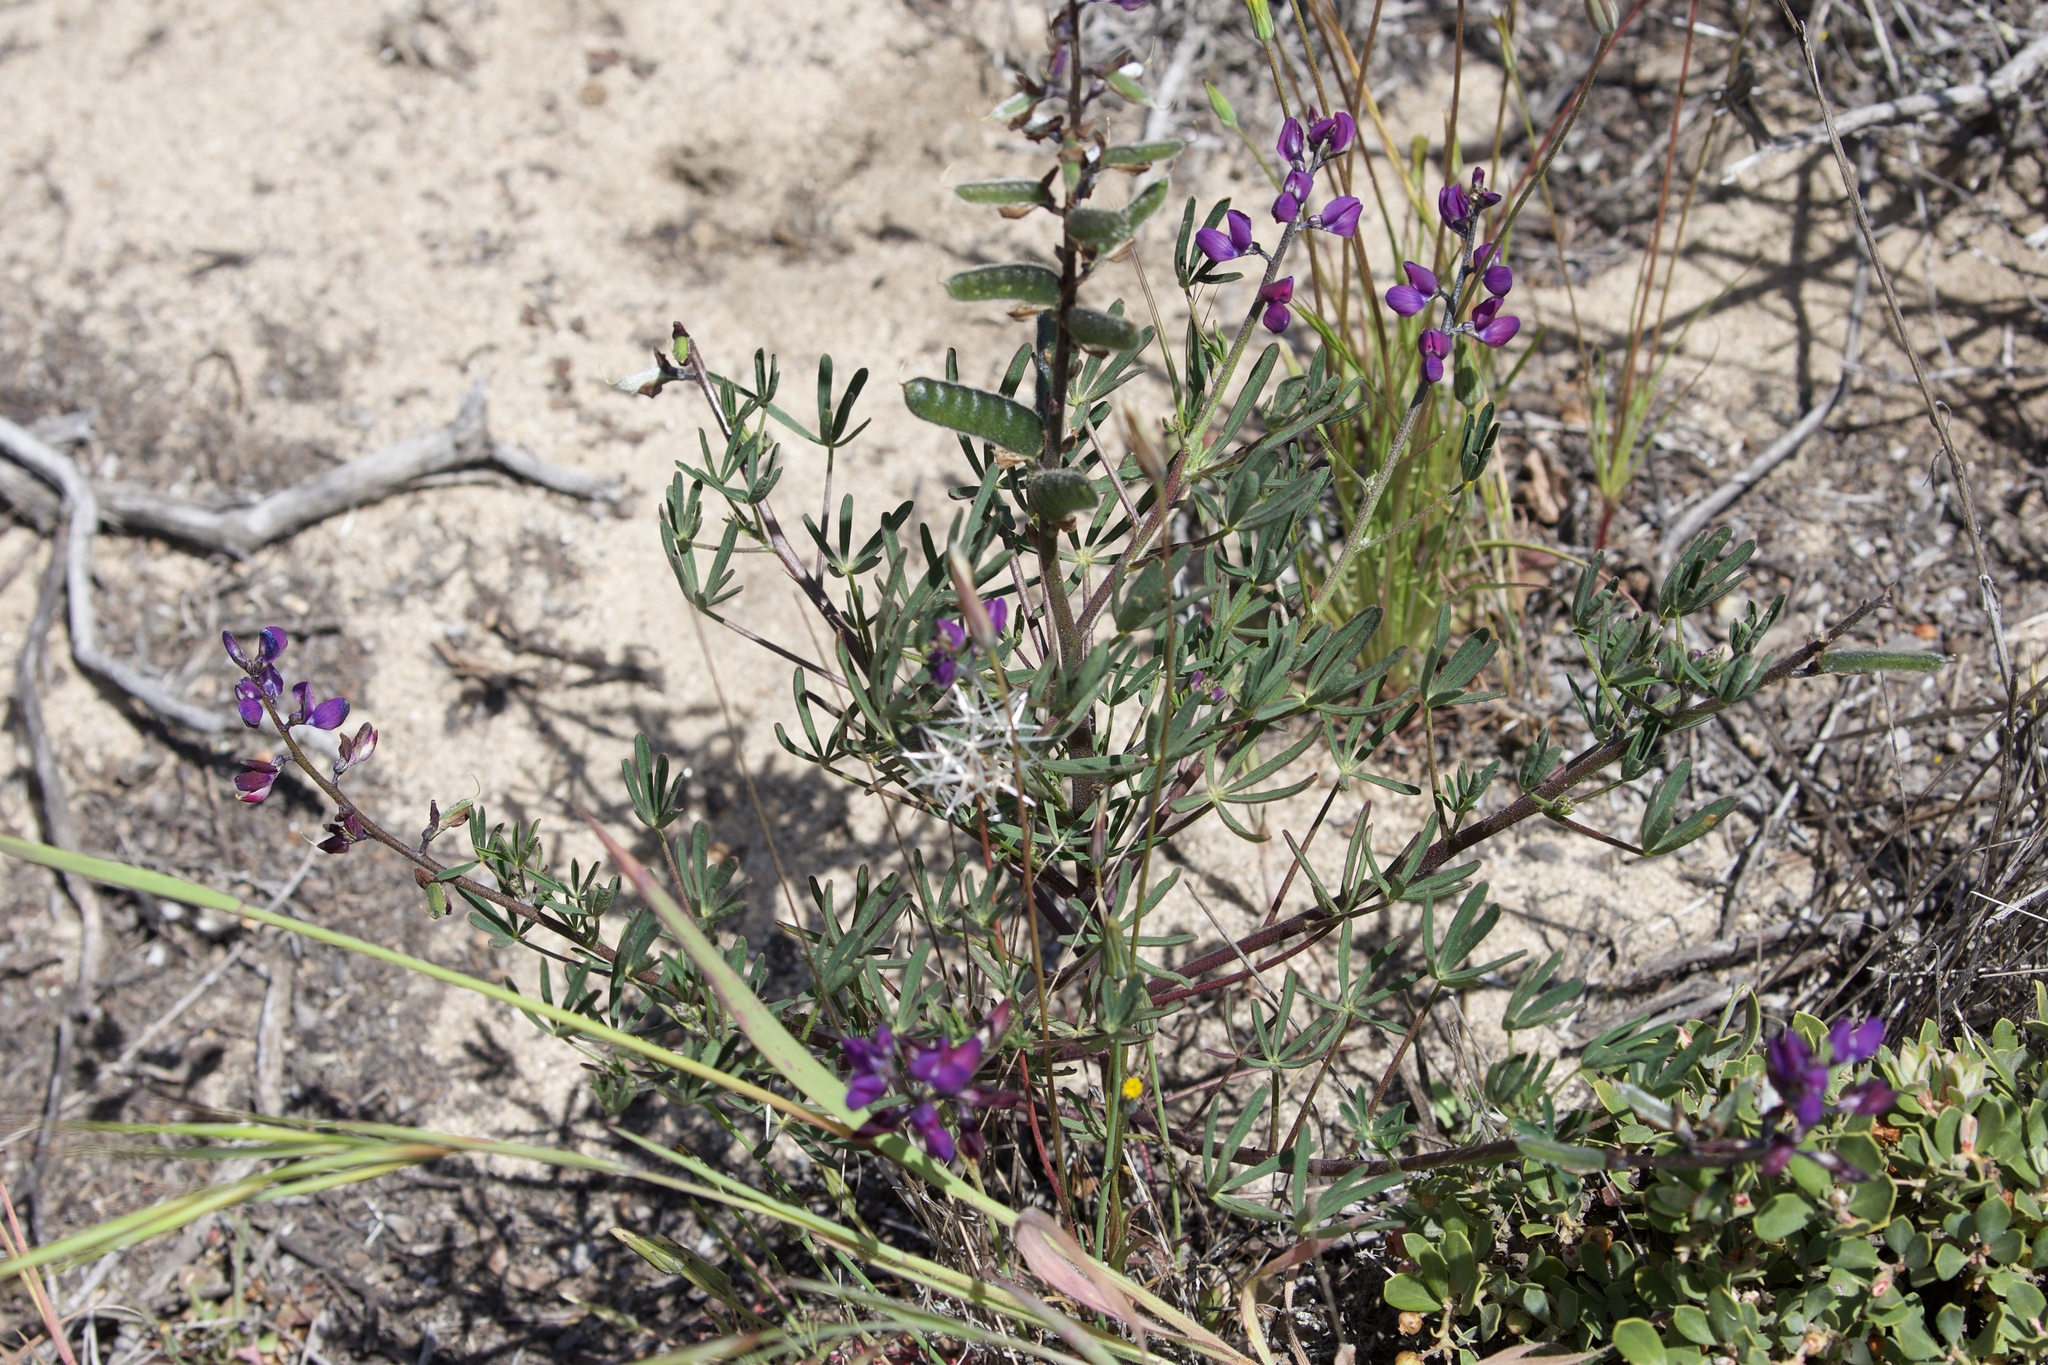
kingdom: Plantae
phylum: Tracheophyta
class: Magnoliopsida
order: Fabales
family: Fabaceae
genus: Lupinus
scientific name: Lupinus truncatus
